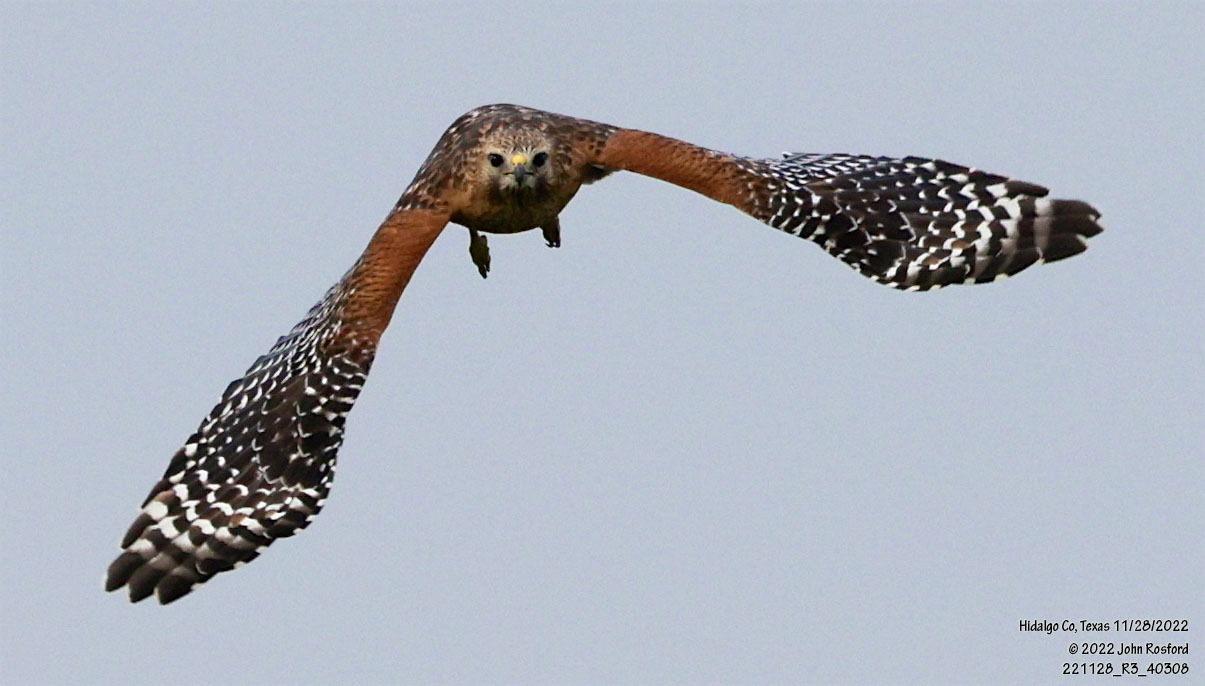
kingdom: Animalia
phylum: Chordata
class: Aves
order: Accipitriformes
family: Accipitridae
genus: Buteo
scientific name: Buteo lineatus
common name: Red-shouldered hawk
